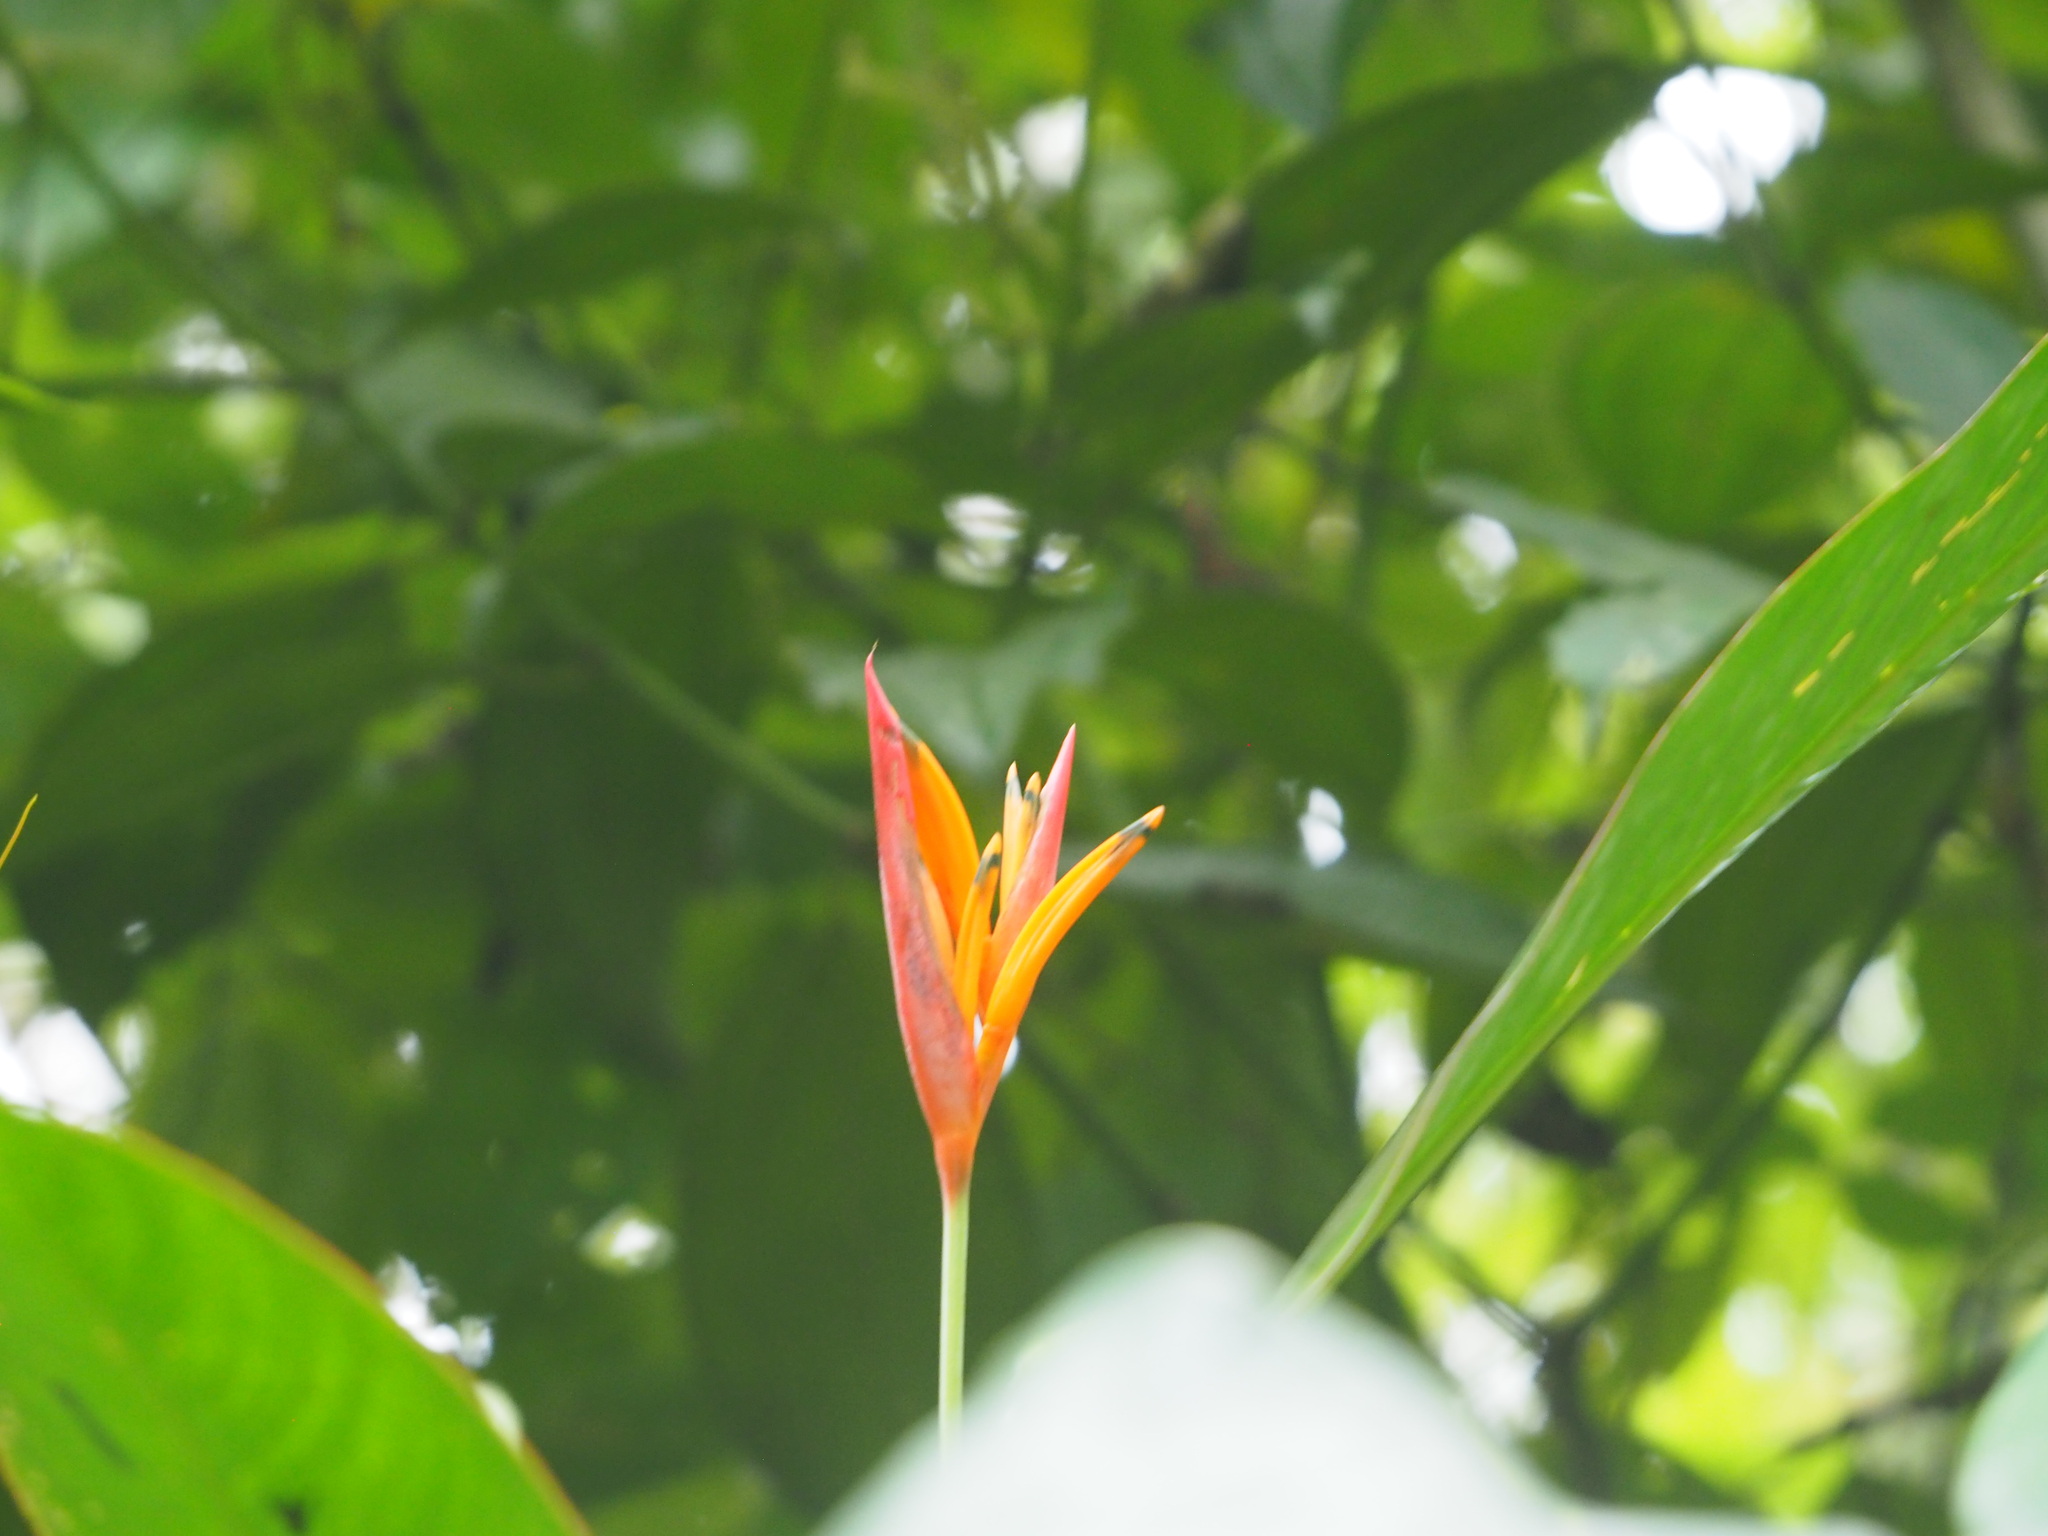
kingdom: Plantae
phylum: Tracheophyta
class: Liliopsida
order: Zingiberales
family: Heliconiaceae
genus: Heliconia
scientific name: Heliconia psittacorum
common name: Parrot's-flower
